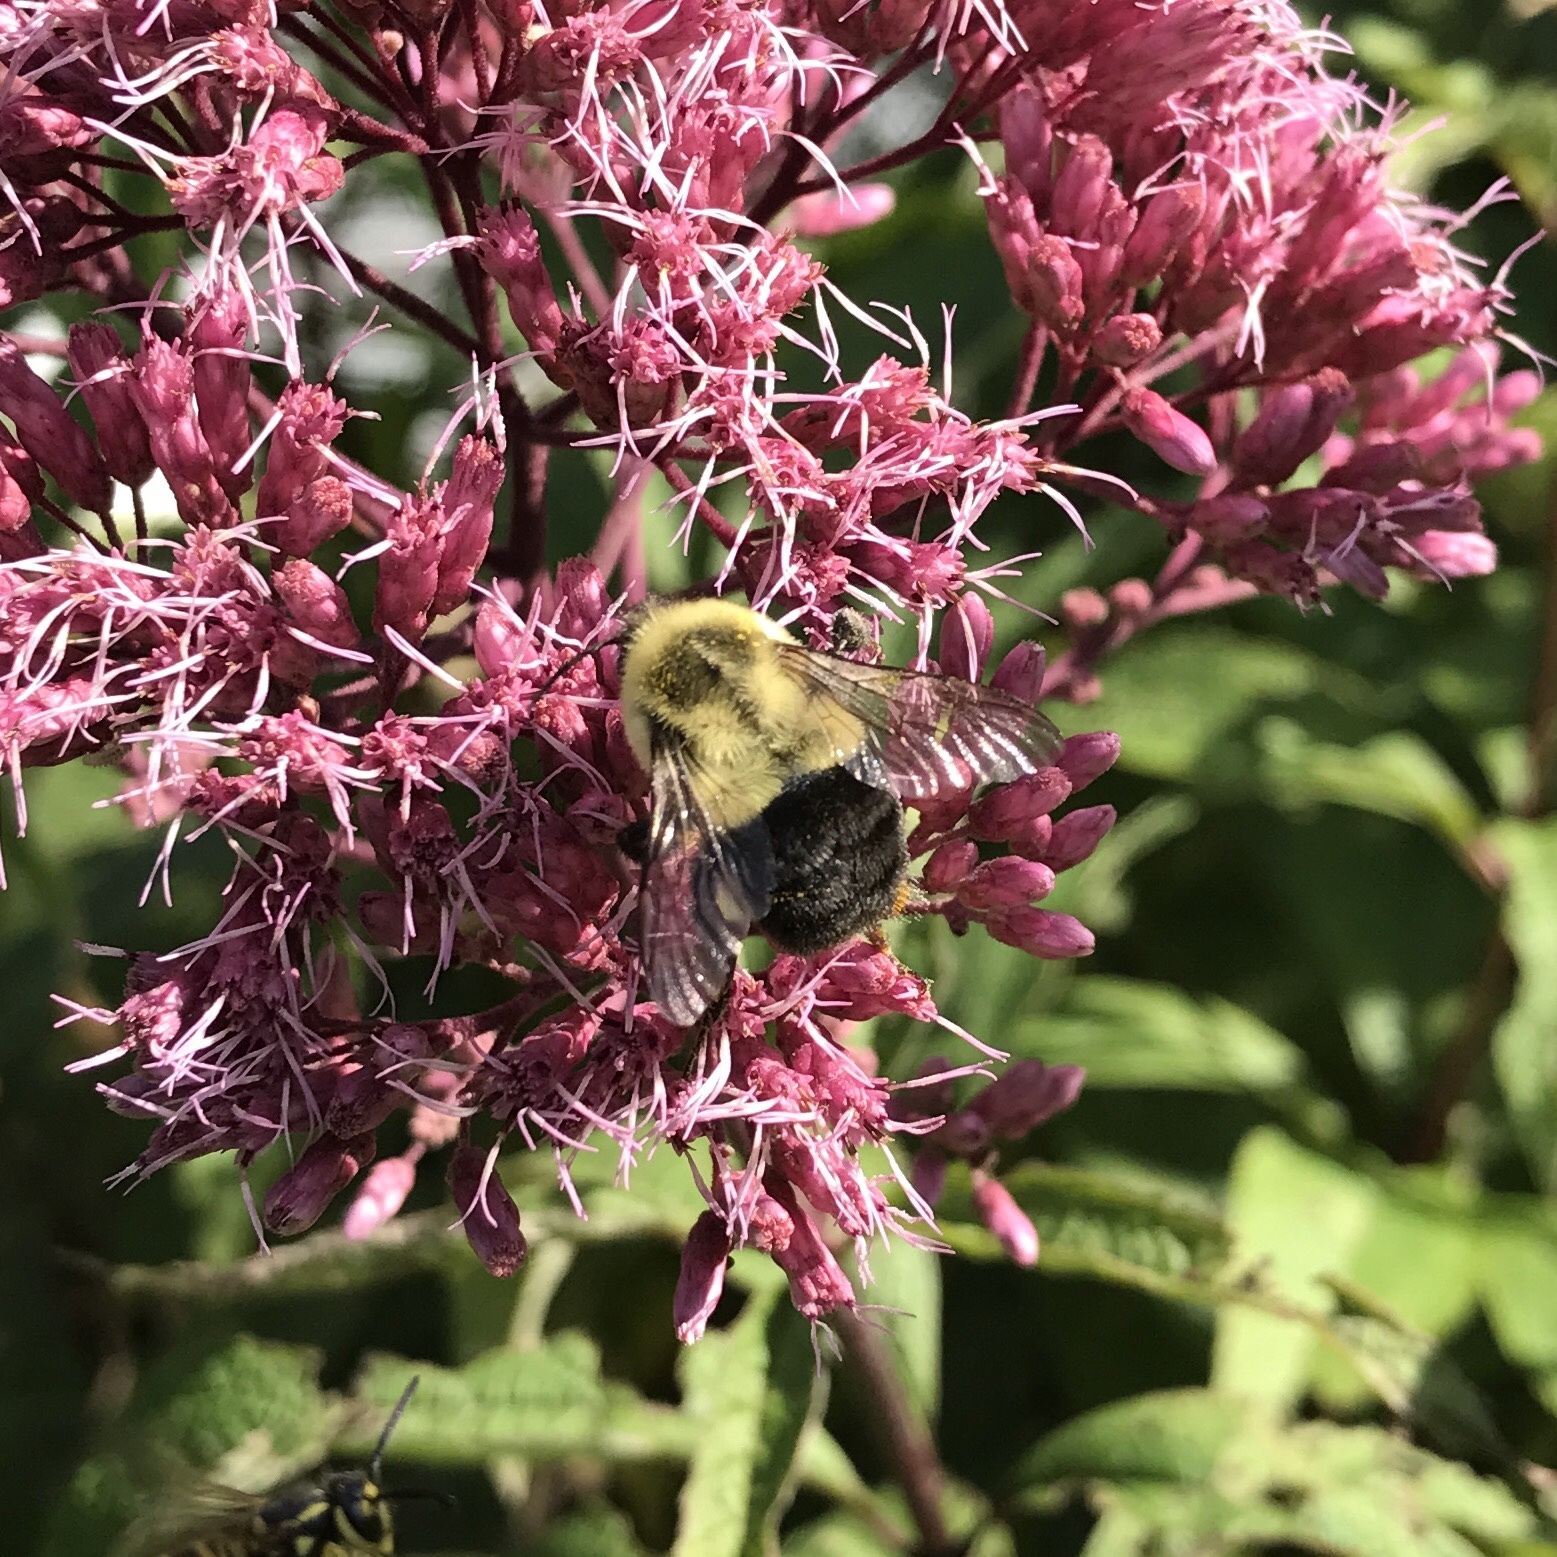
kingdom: Animalia
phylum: Arthropoda
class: Insecta
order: Hymenoptera
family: Apidae
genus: Bombus
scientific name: Bombus impatiens
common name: Common eastern bumble bee
